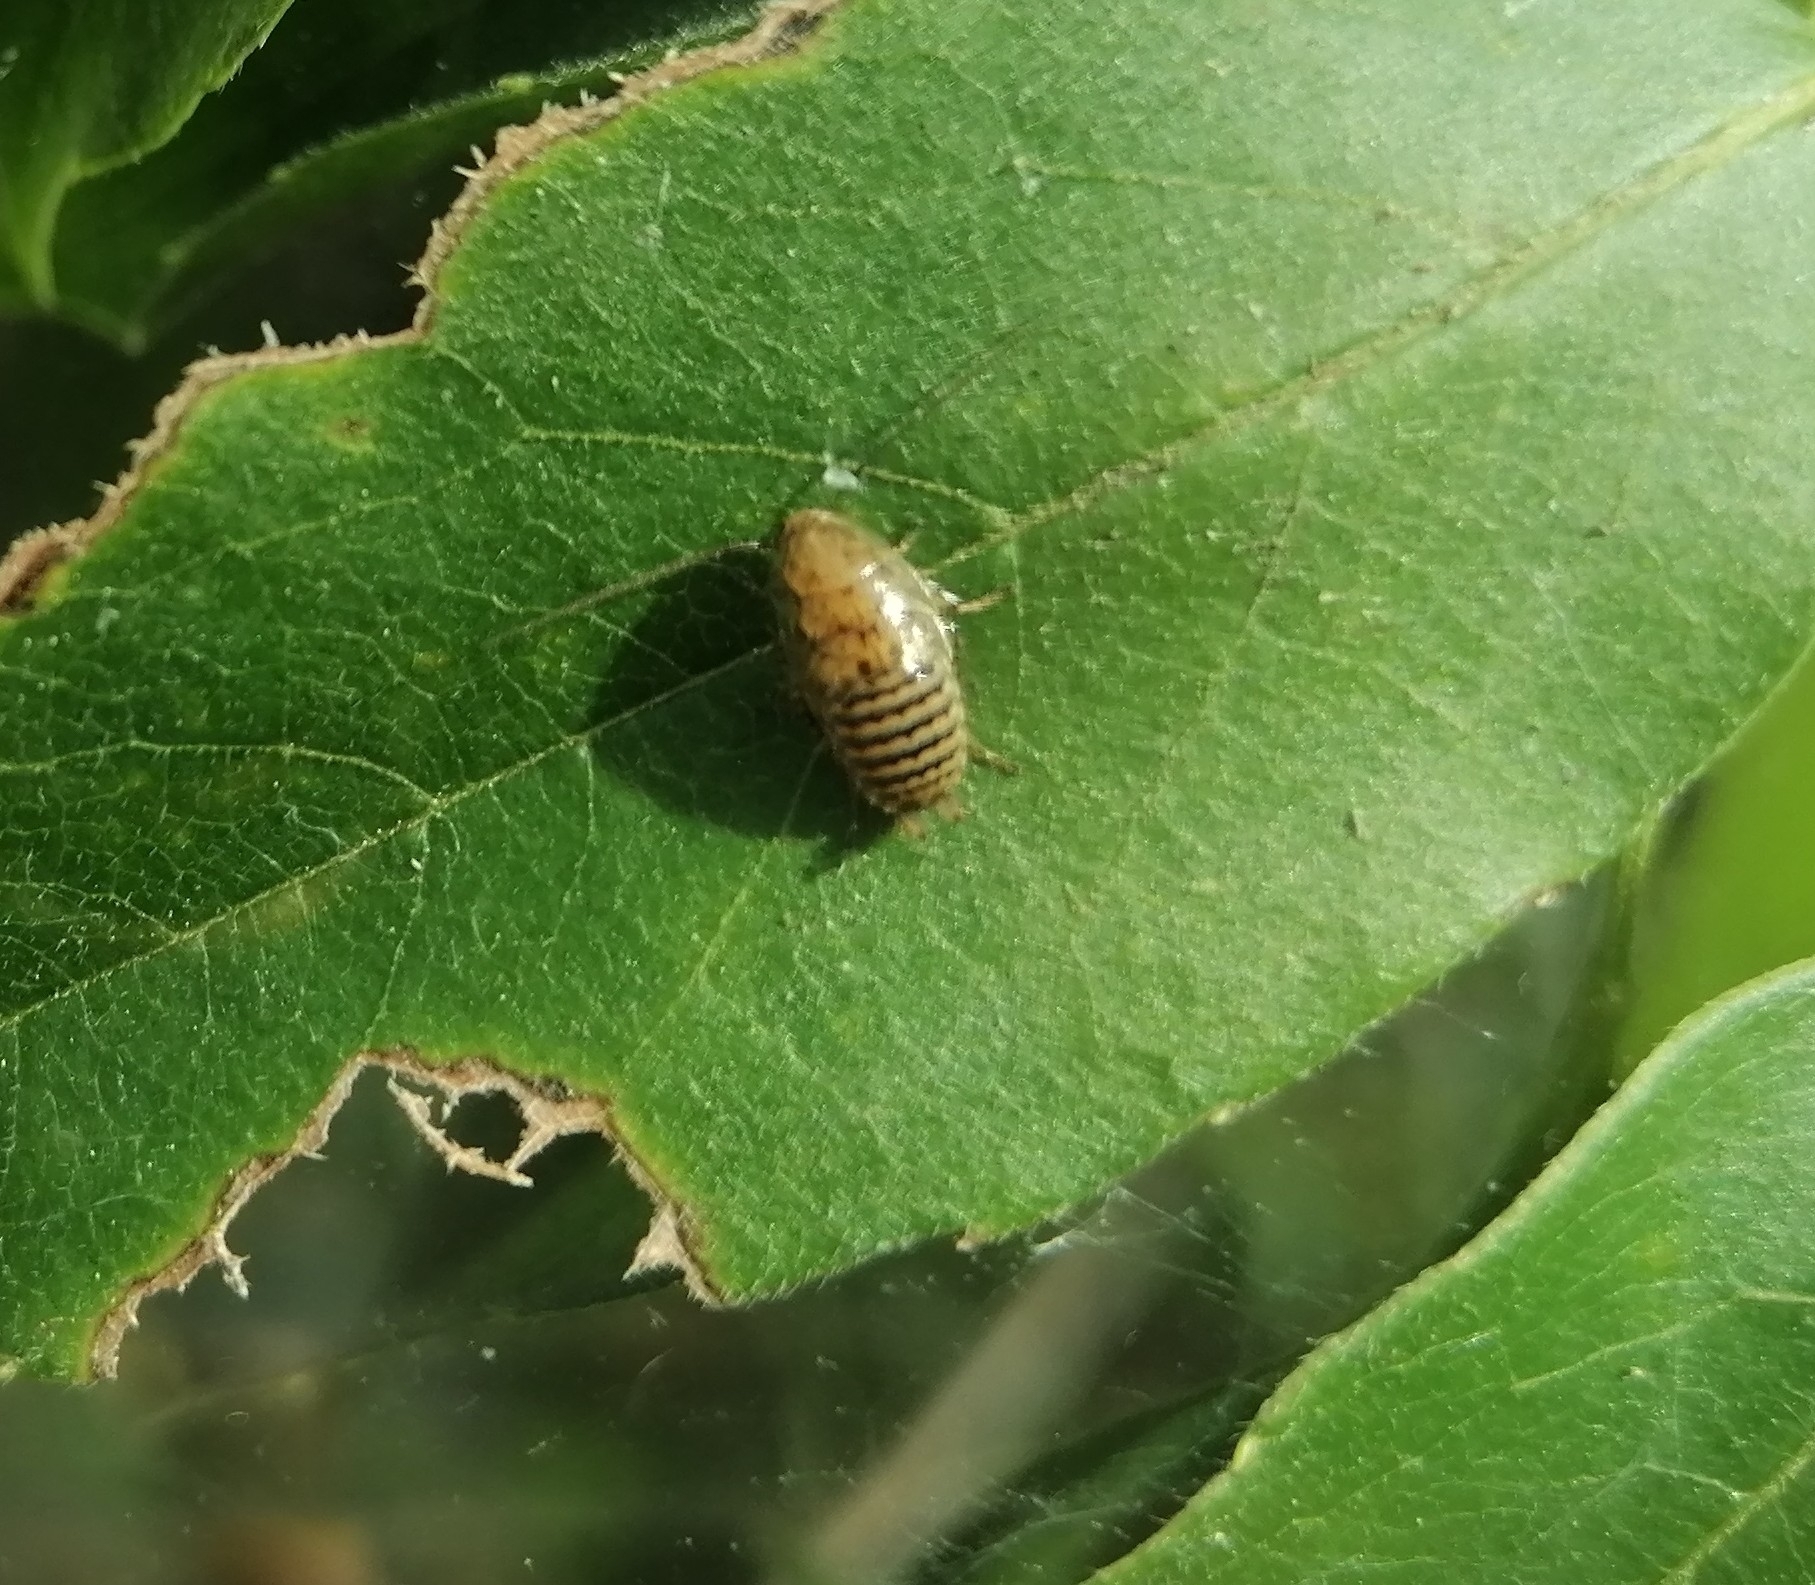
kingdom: Animalia
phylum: Arthropoda
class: Insecta
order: Blattodea
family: Ectobiidae
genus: Ectobius
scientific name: Ectobius vittiventris
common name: Garden cockroach
